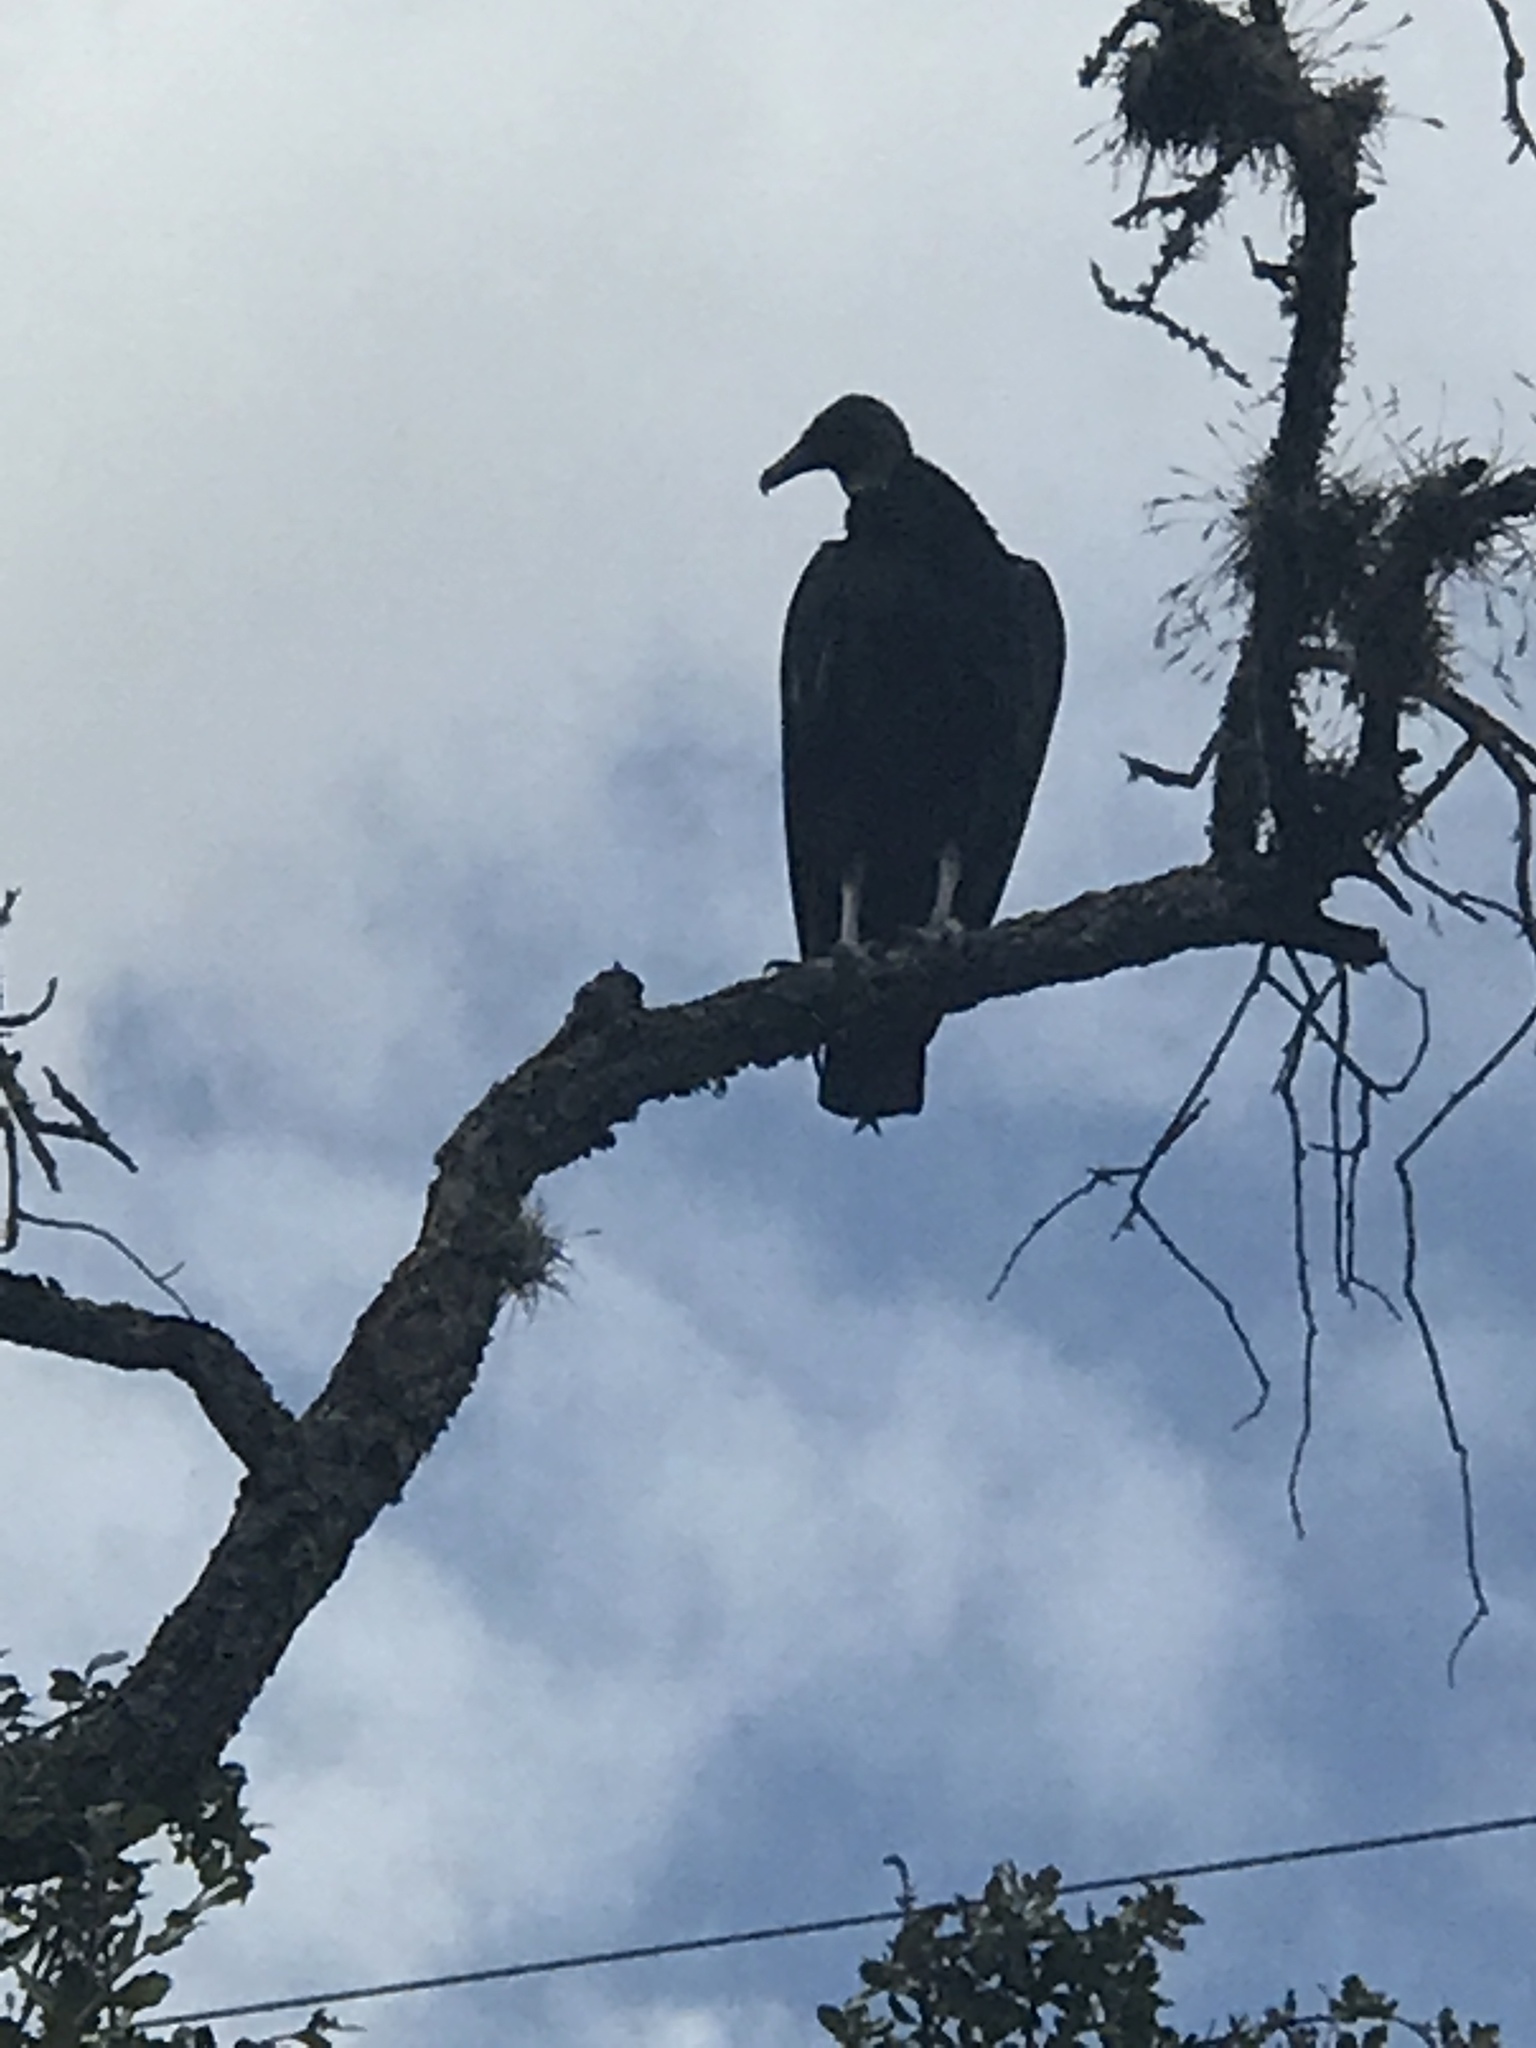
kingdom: Animalia
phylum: Chordata
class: Aves
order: Accipitriformes
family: Cathartidae
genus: Coragyps
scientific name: Coragyps atratus
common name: Black vulture
